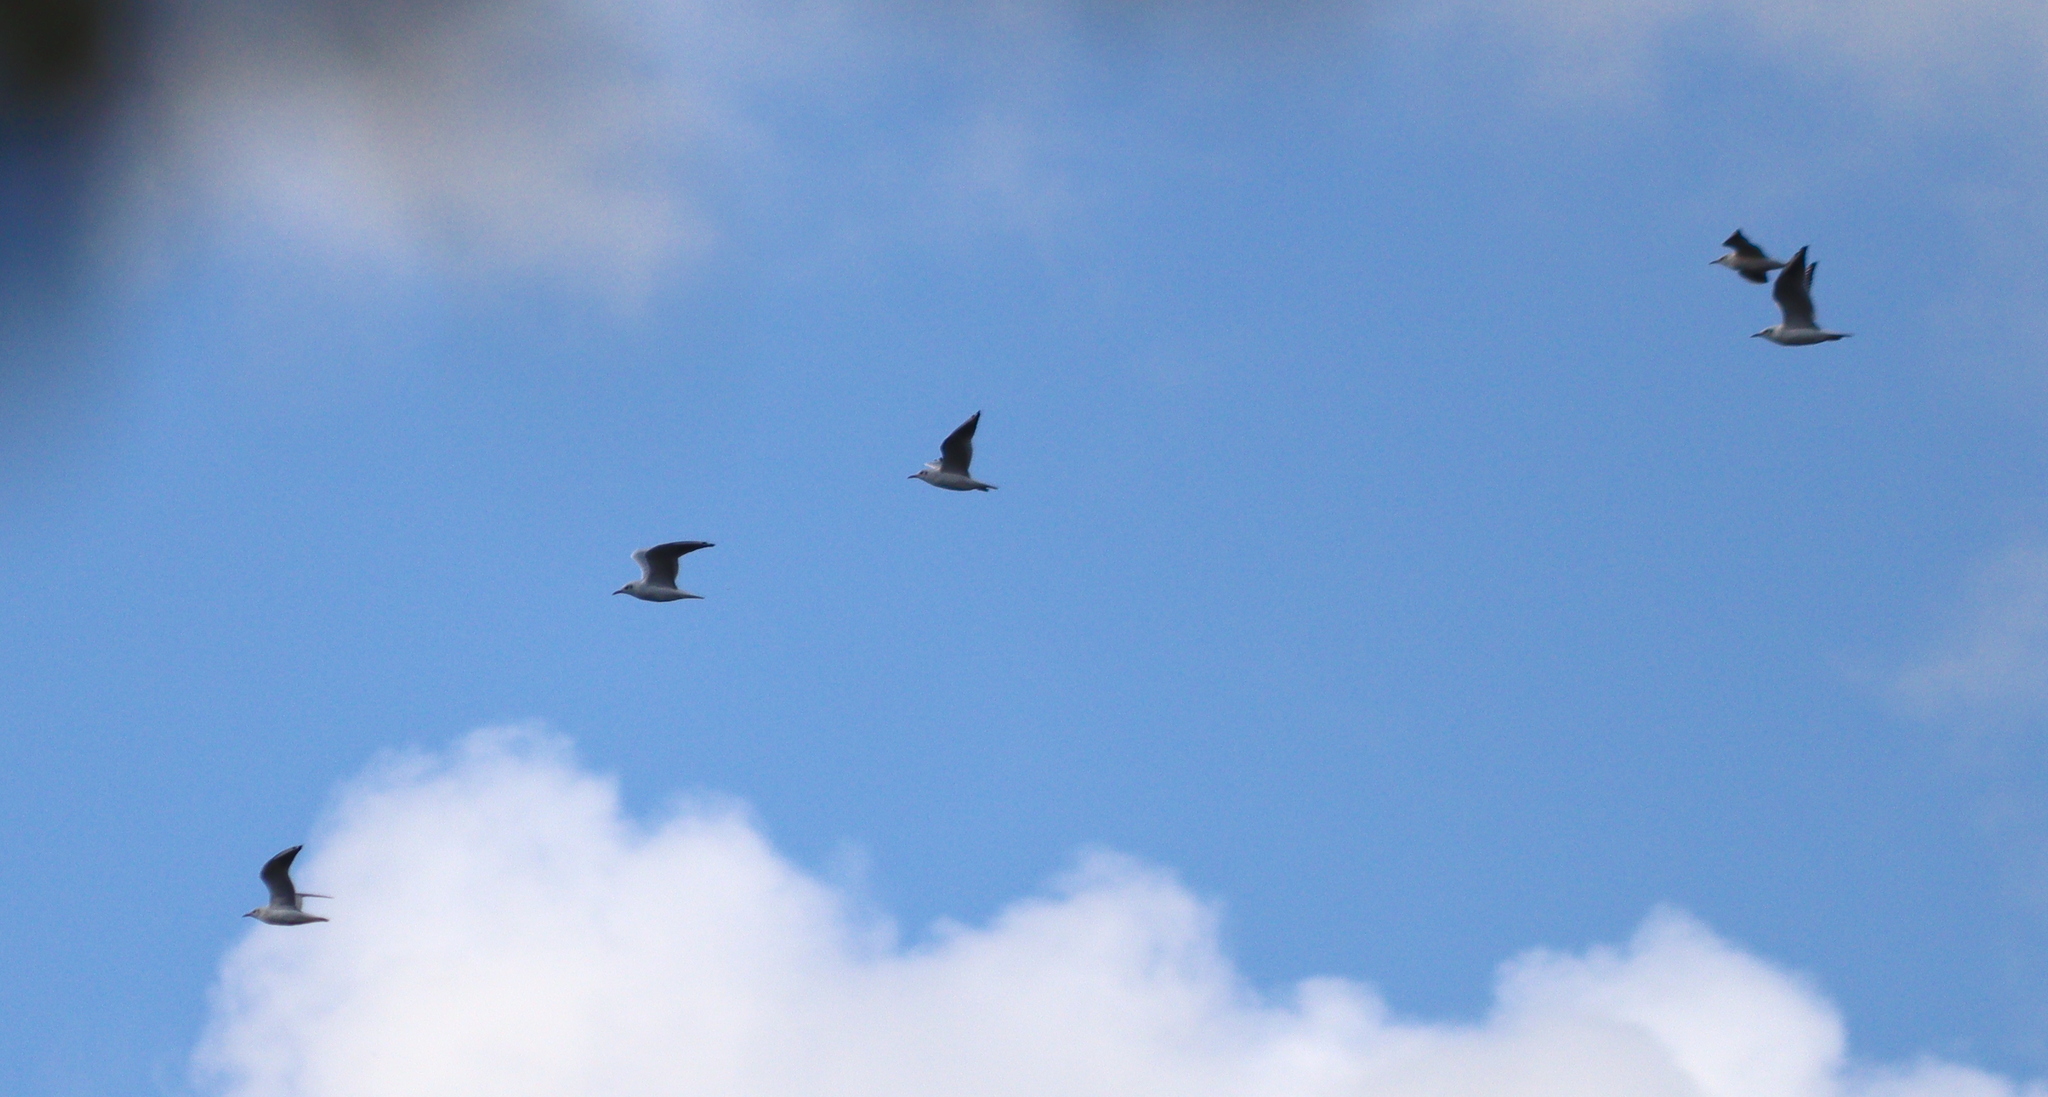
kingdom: Animalia
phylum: Chordata
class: Aves
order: Charadriiformes
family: Laridae
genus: Chroicocephalus
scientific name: Chroicocephalus ridibundus
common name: Black-headed gull
